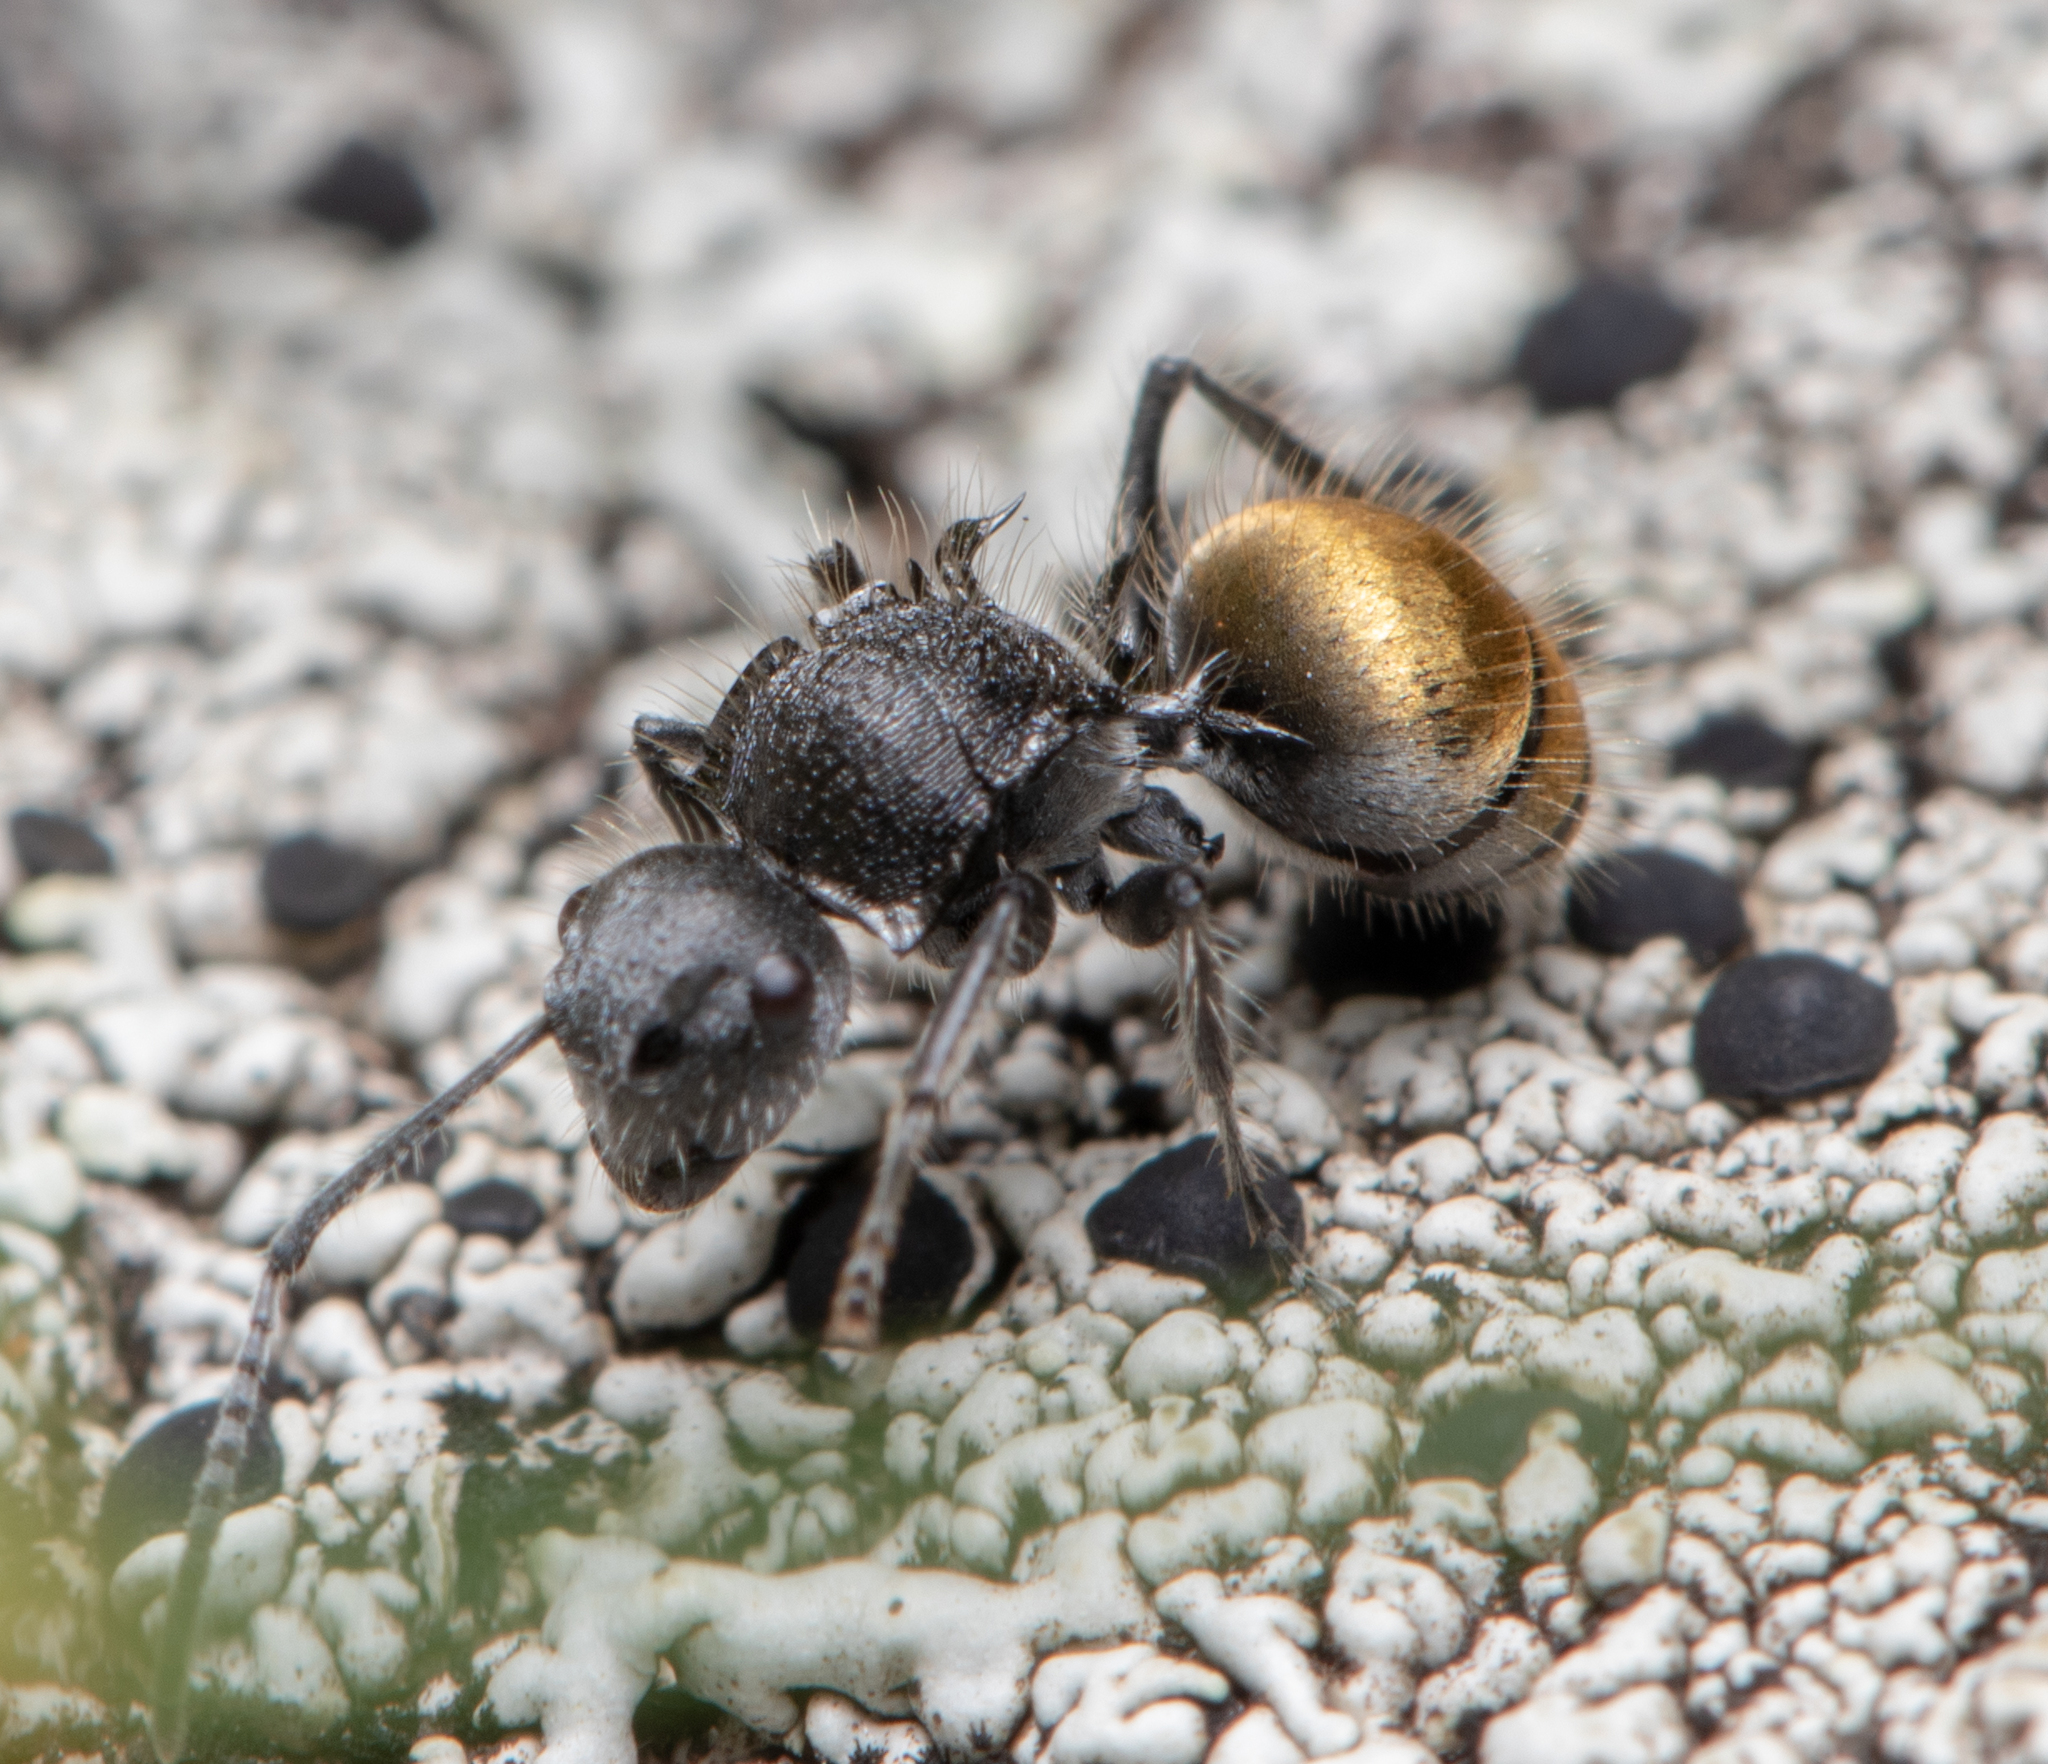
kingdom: Animalia
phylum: Arthropoda
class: Insecta
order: Hymenoptera
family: Formicidae
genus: Polyrhachis
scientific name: Polyrhachis schoopae
